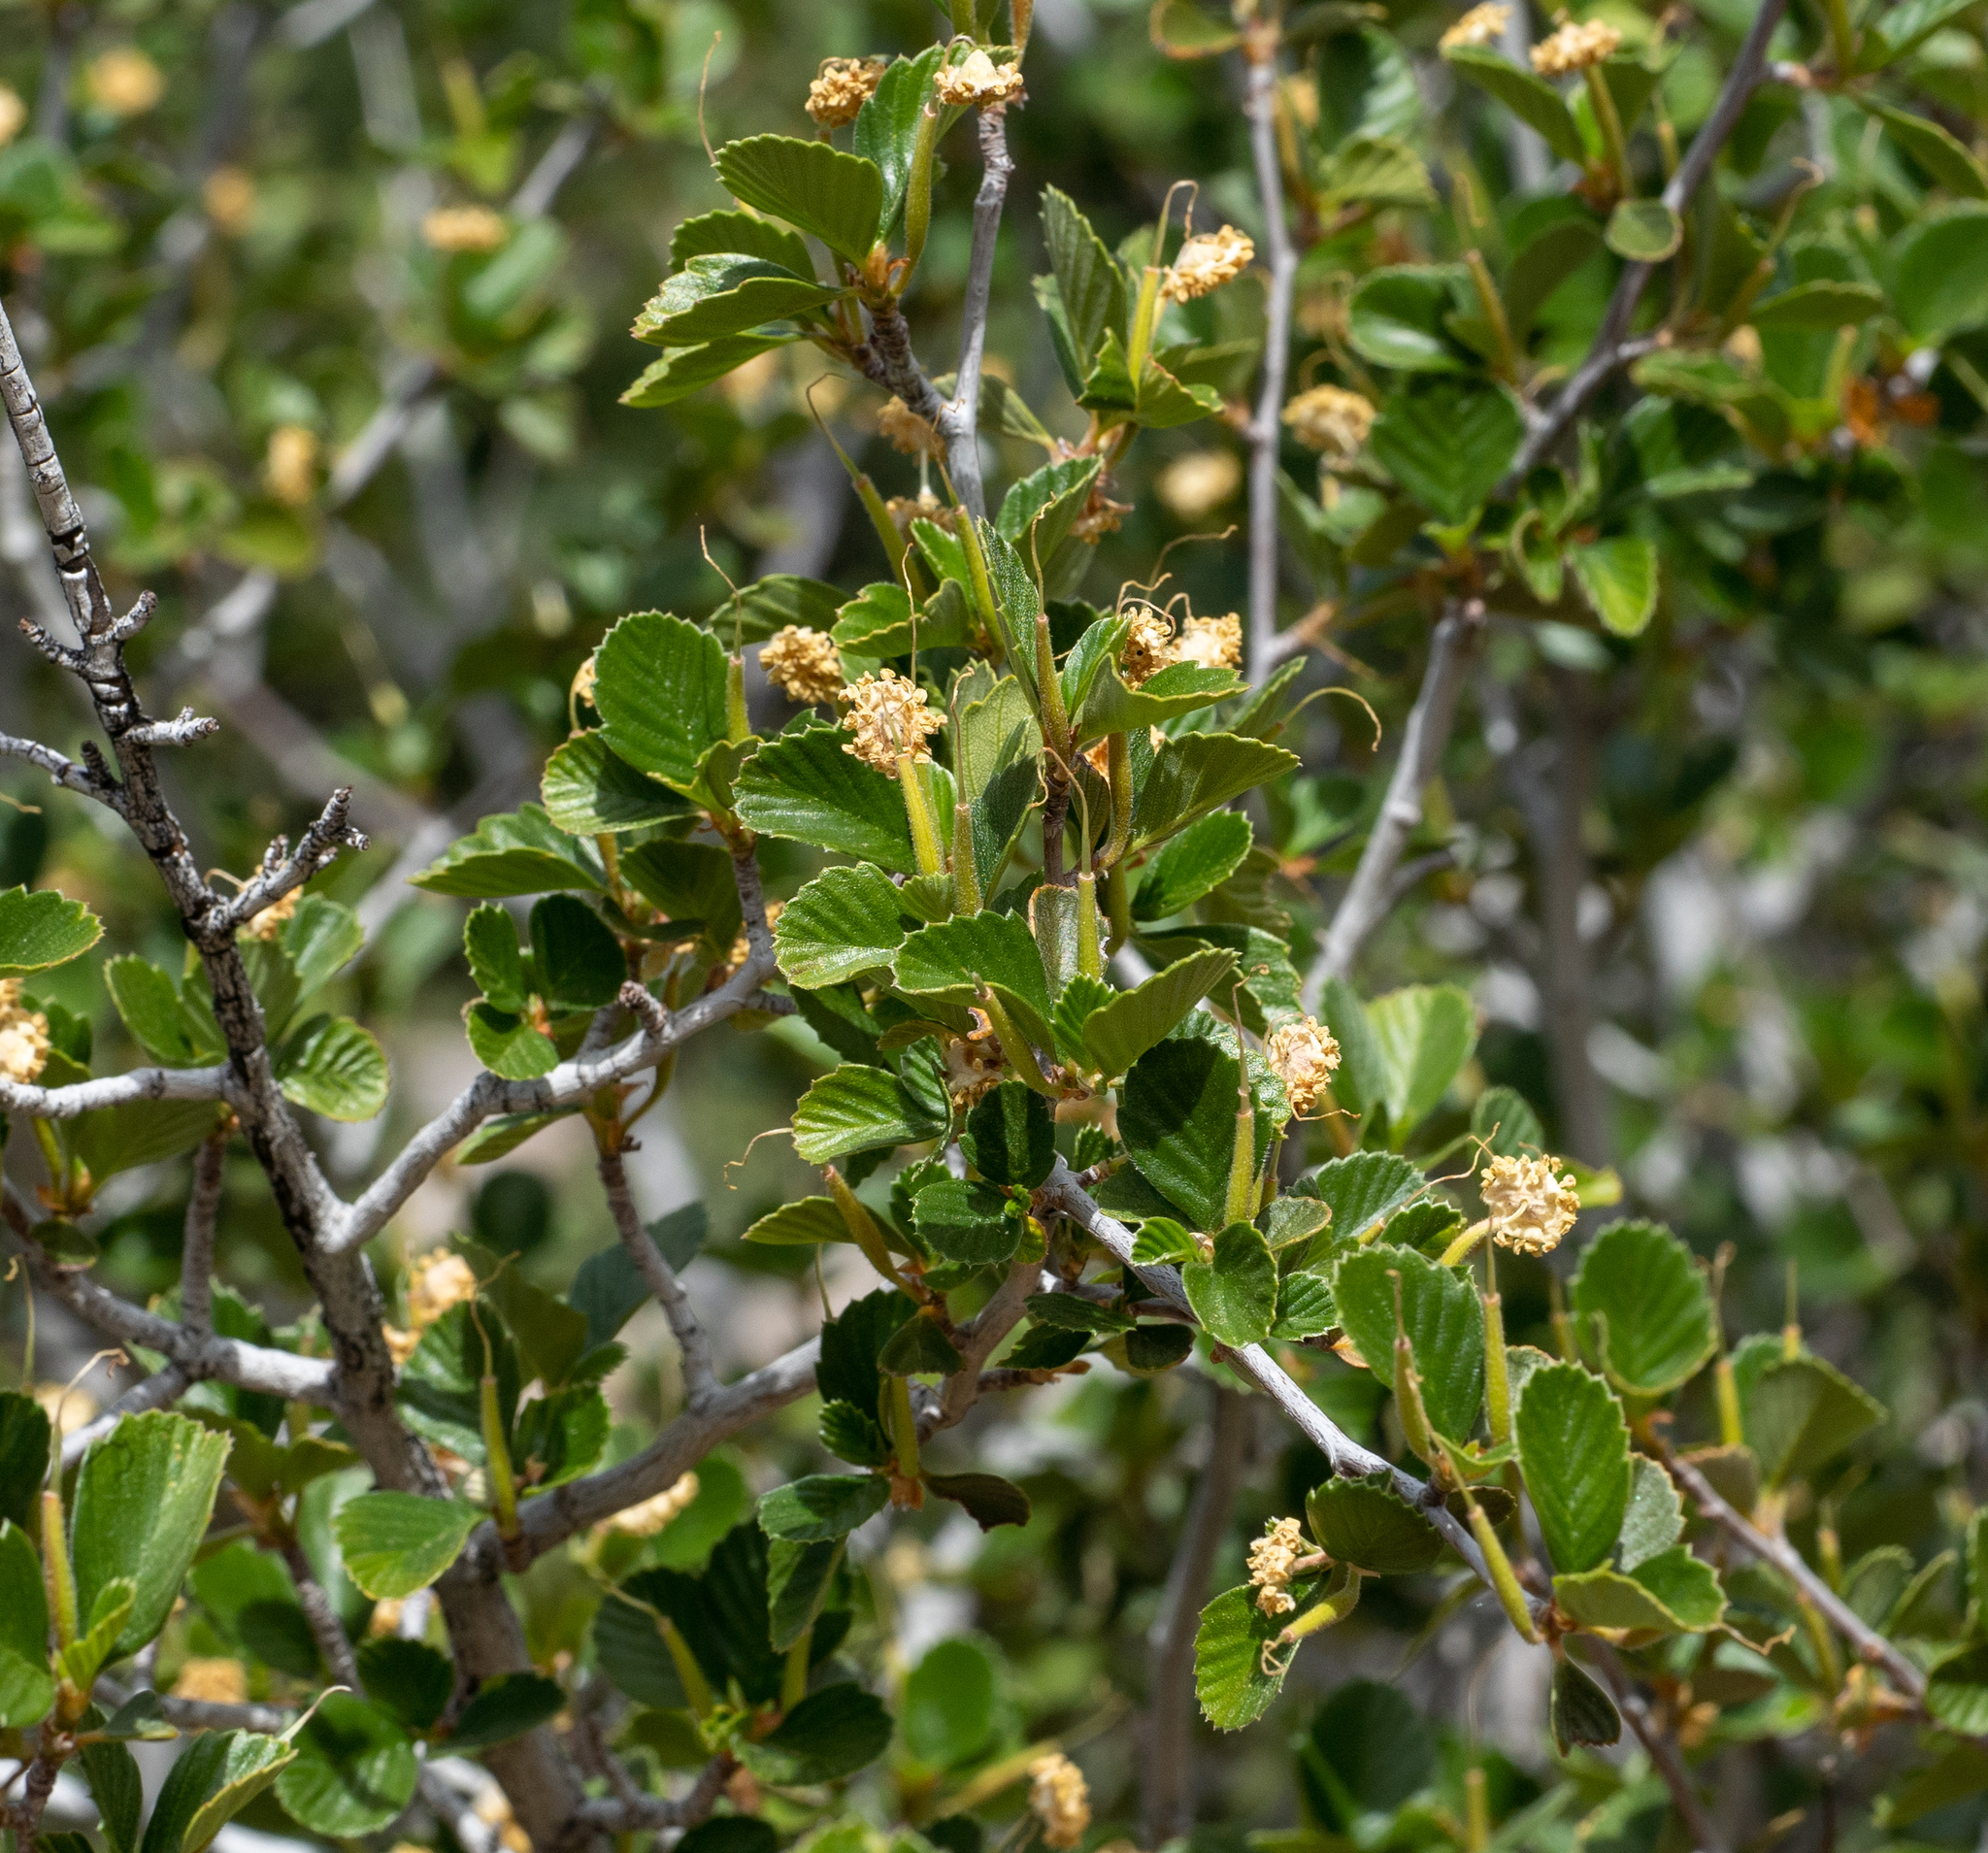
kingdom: Plantae
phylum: Tracheophyta
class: Magnoliopsida
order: Rosales
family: Rosaceae
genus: Cercocarpus
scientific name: Cercocarpus betuloides
